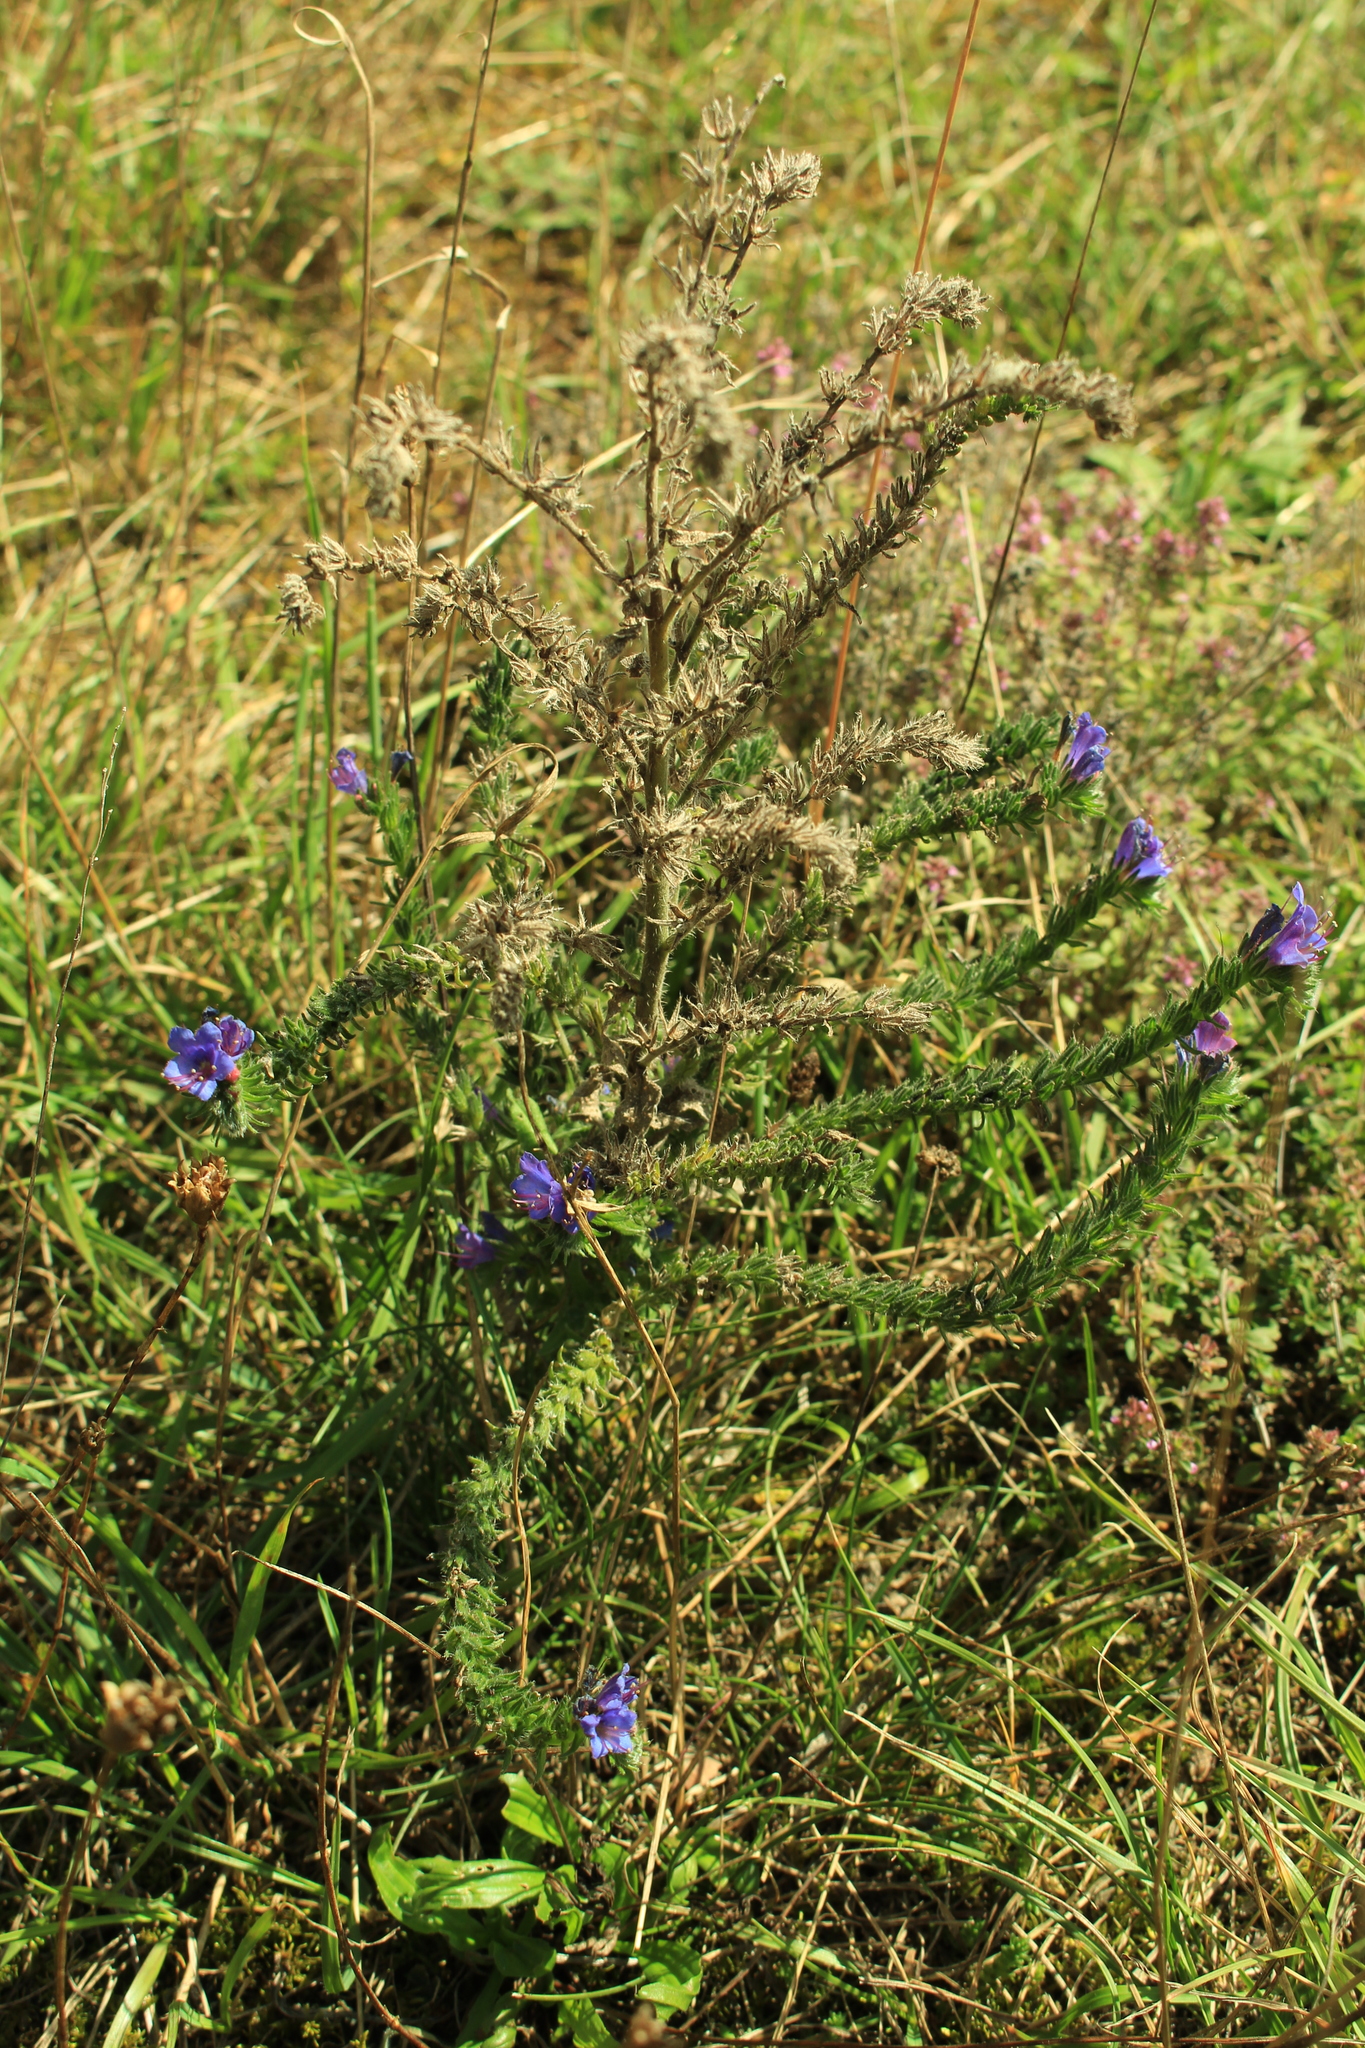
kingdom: Plantae
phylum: Tracheophyta
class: Magnoliopsida
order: Boraginales
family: Boraginaceae
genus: Echium
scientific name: Echium vulgare
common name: Common viper's bugloss
